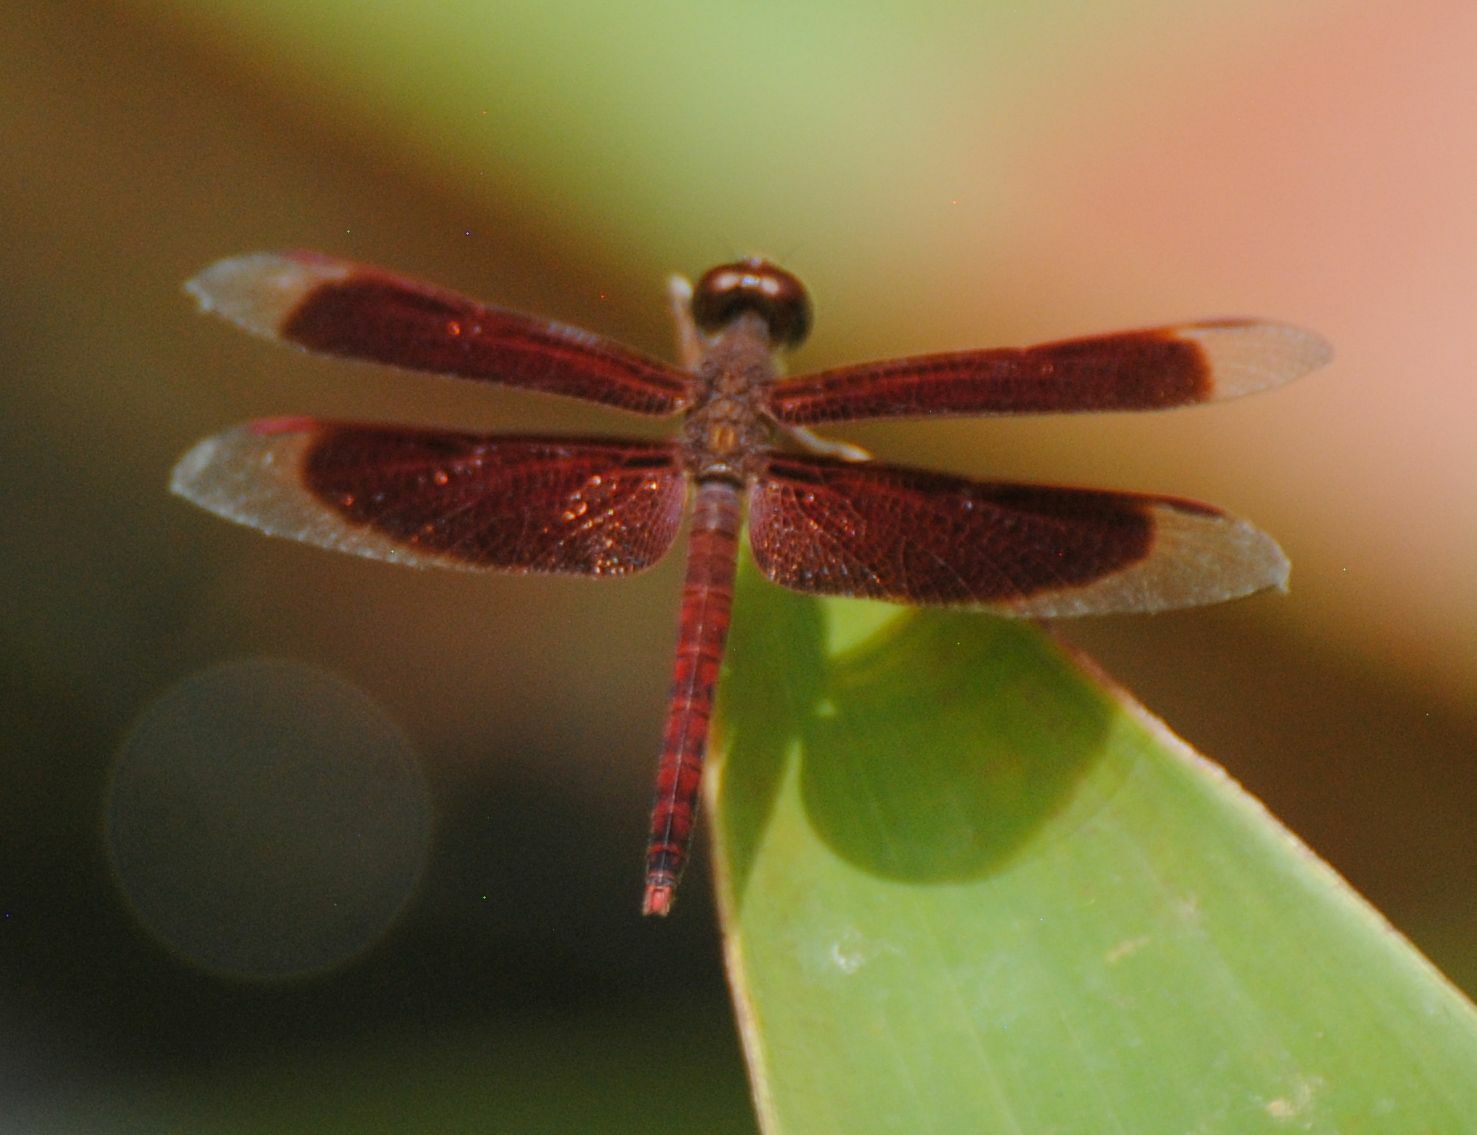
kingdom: Animalia
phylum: Arthropoda
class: Insecta
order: Odonata
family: Libellulidae
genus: Neurothemis
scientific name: Neurothemis fluctuans
